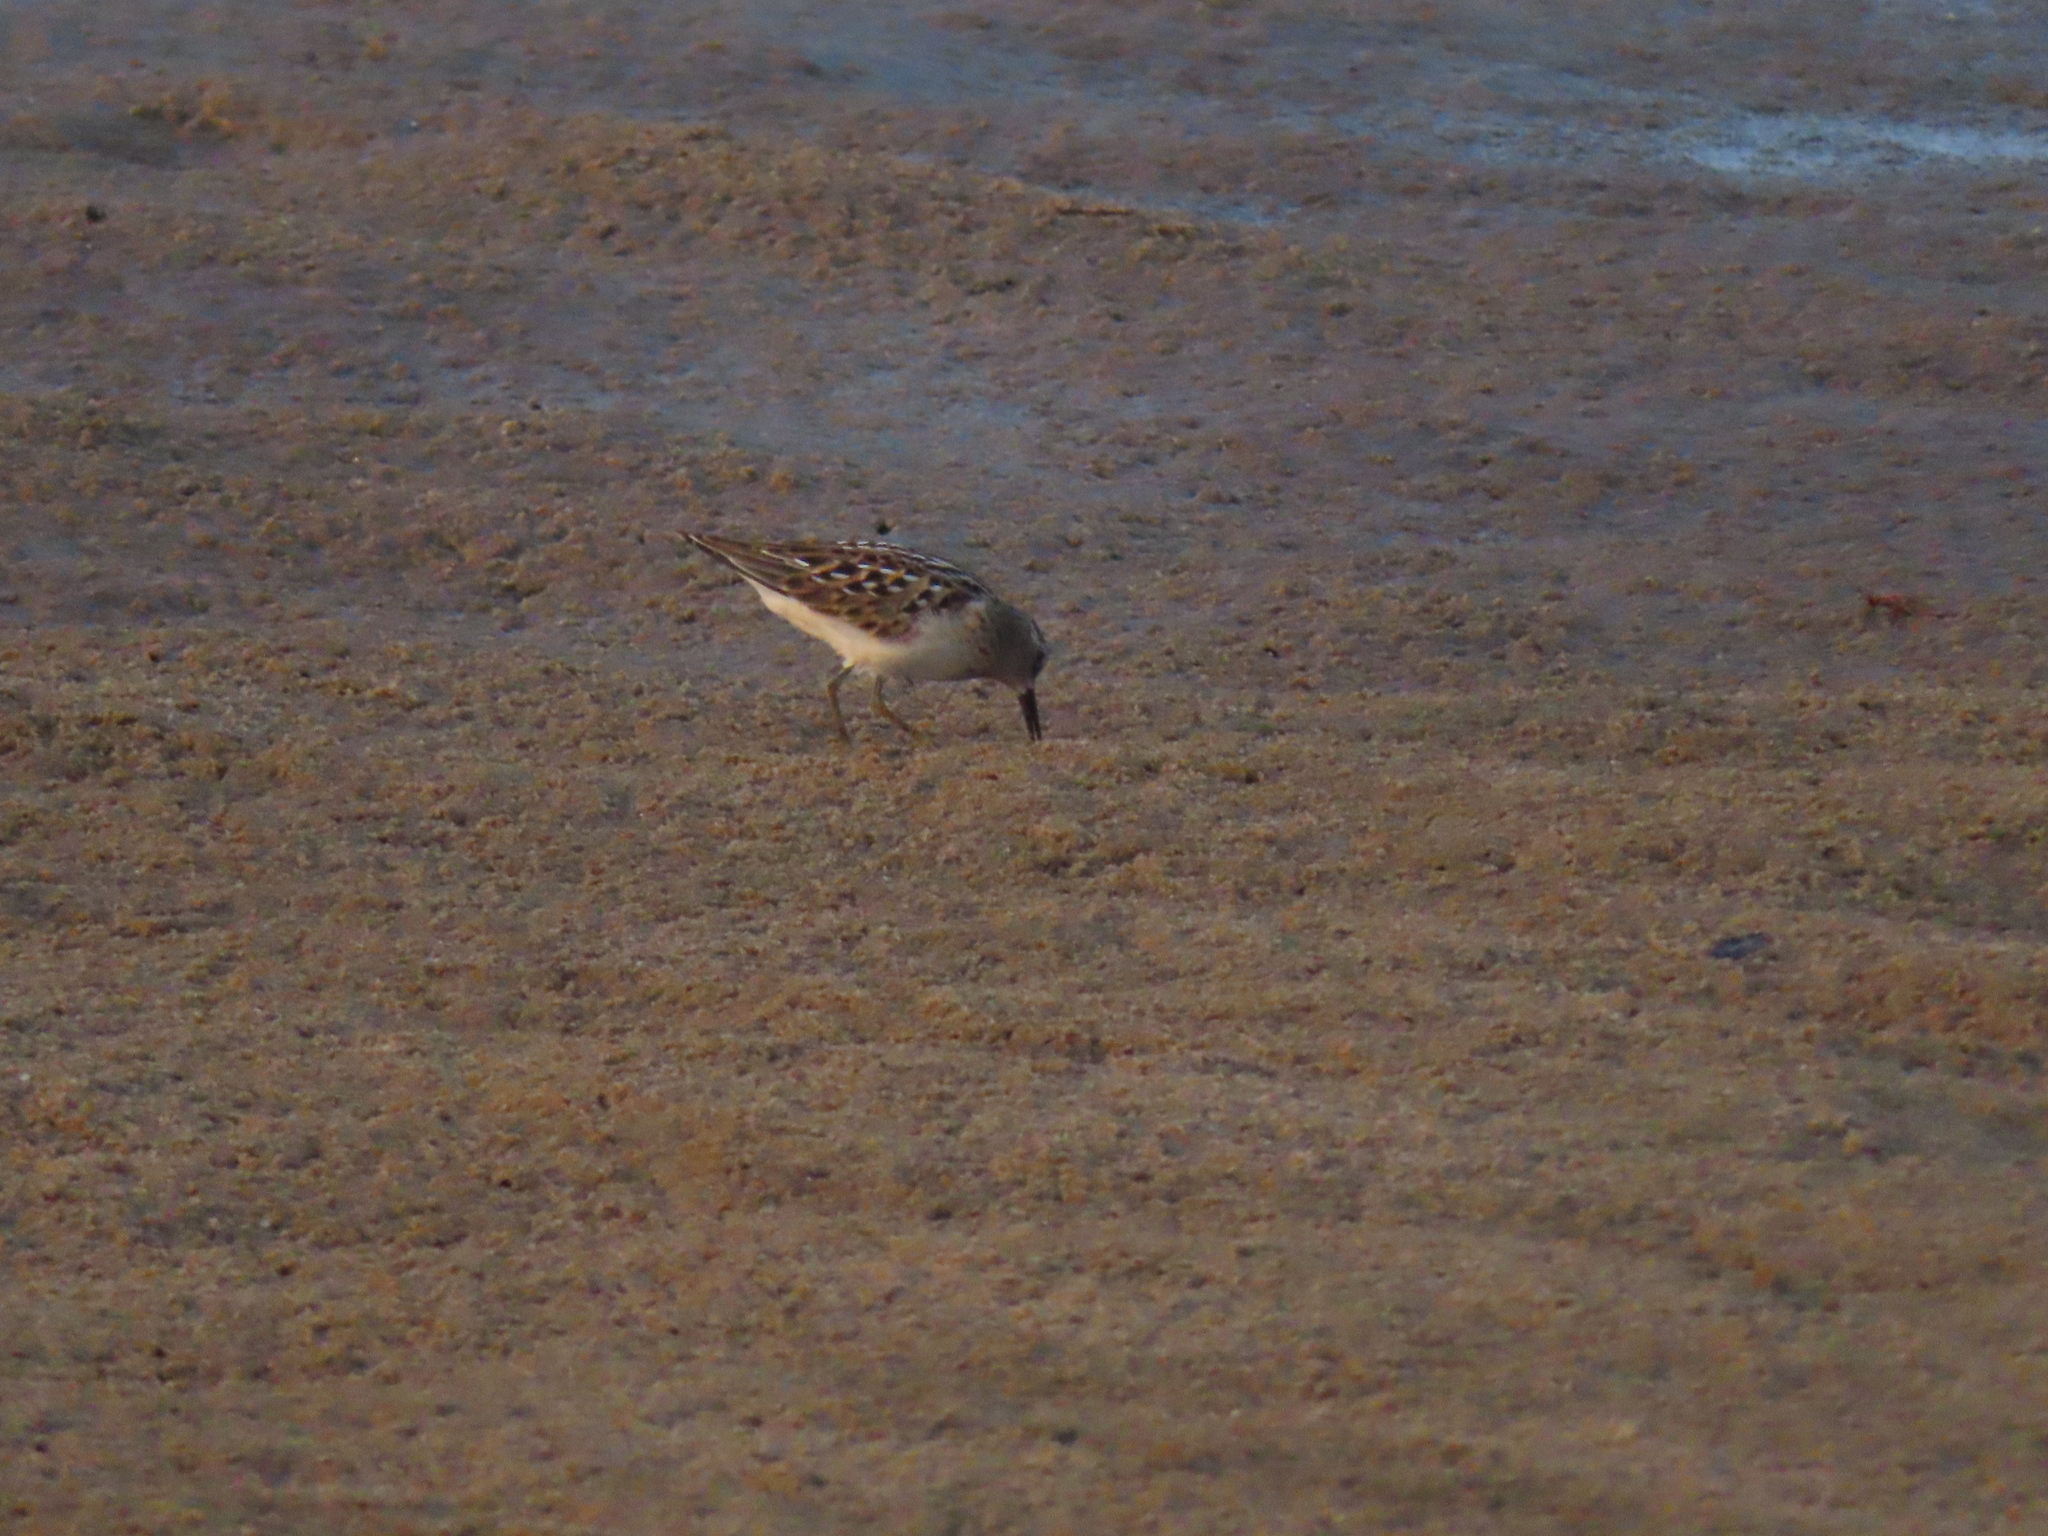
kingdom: Animalia
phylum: Chordata
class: Aves
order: Charadriiformes
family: Scolopacidae
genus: Calidris
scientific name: Calidris minutilla
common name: Least sandpiper
